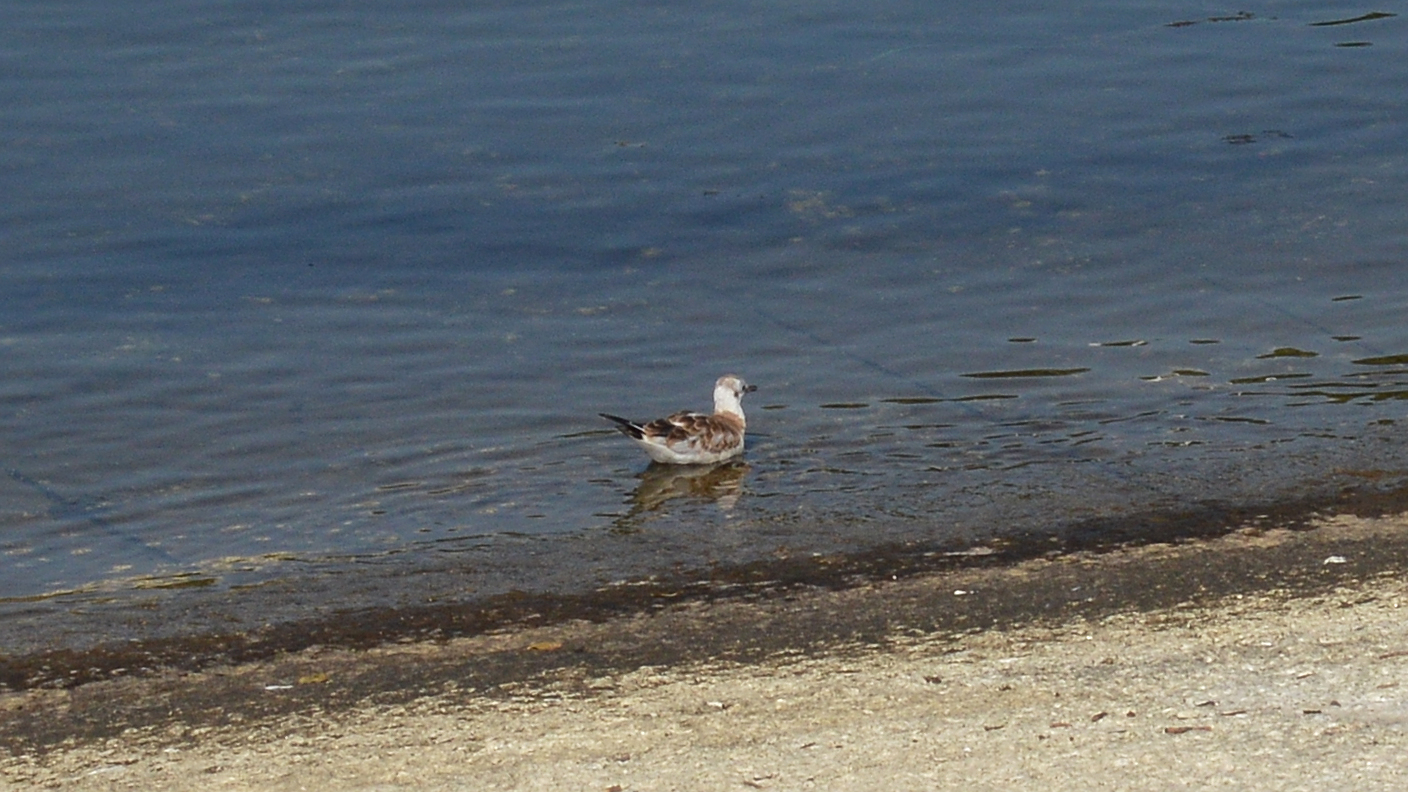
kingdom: Animalia
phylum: Chordata
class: Aves
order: Charadriiformes
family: Laridae
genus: Chroicocephalus
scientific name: Chroicocephalus ridibundus
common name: Black-headed gull
